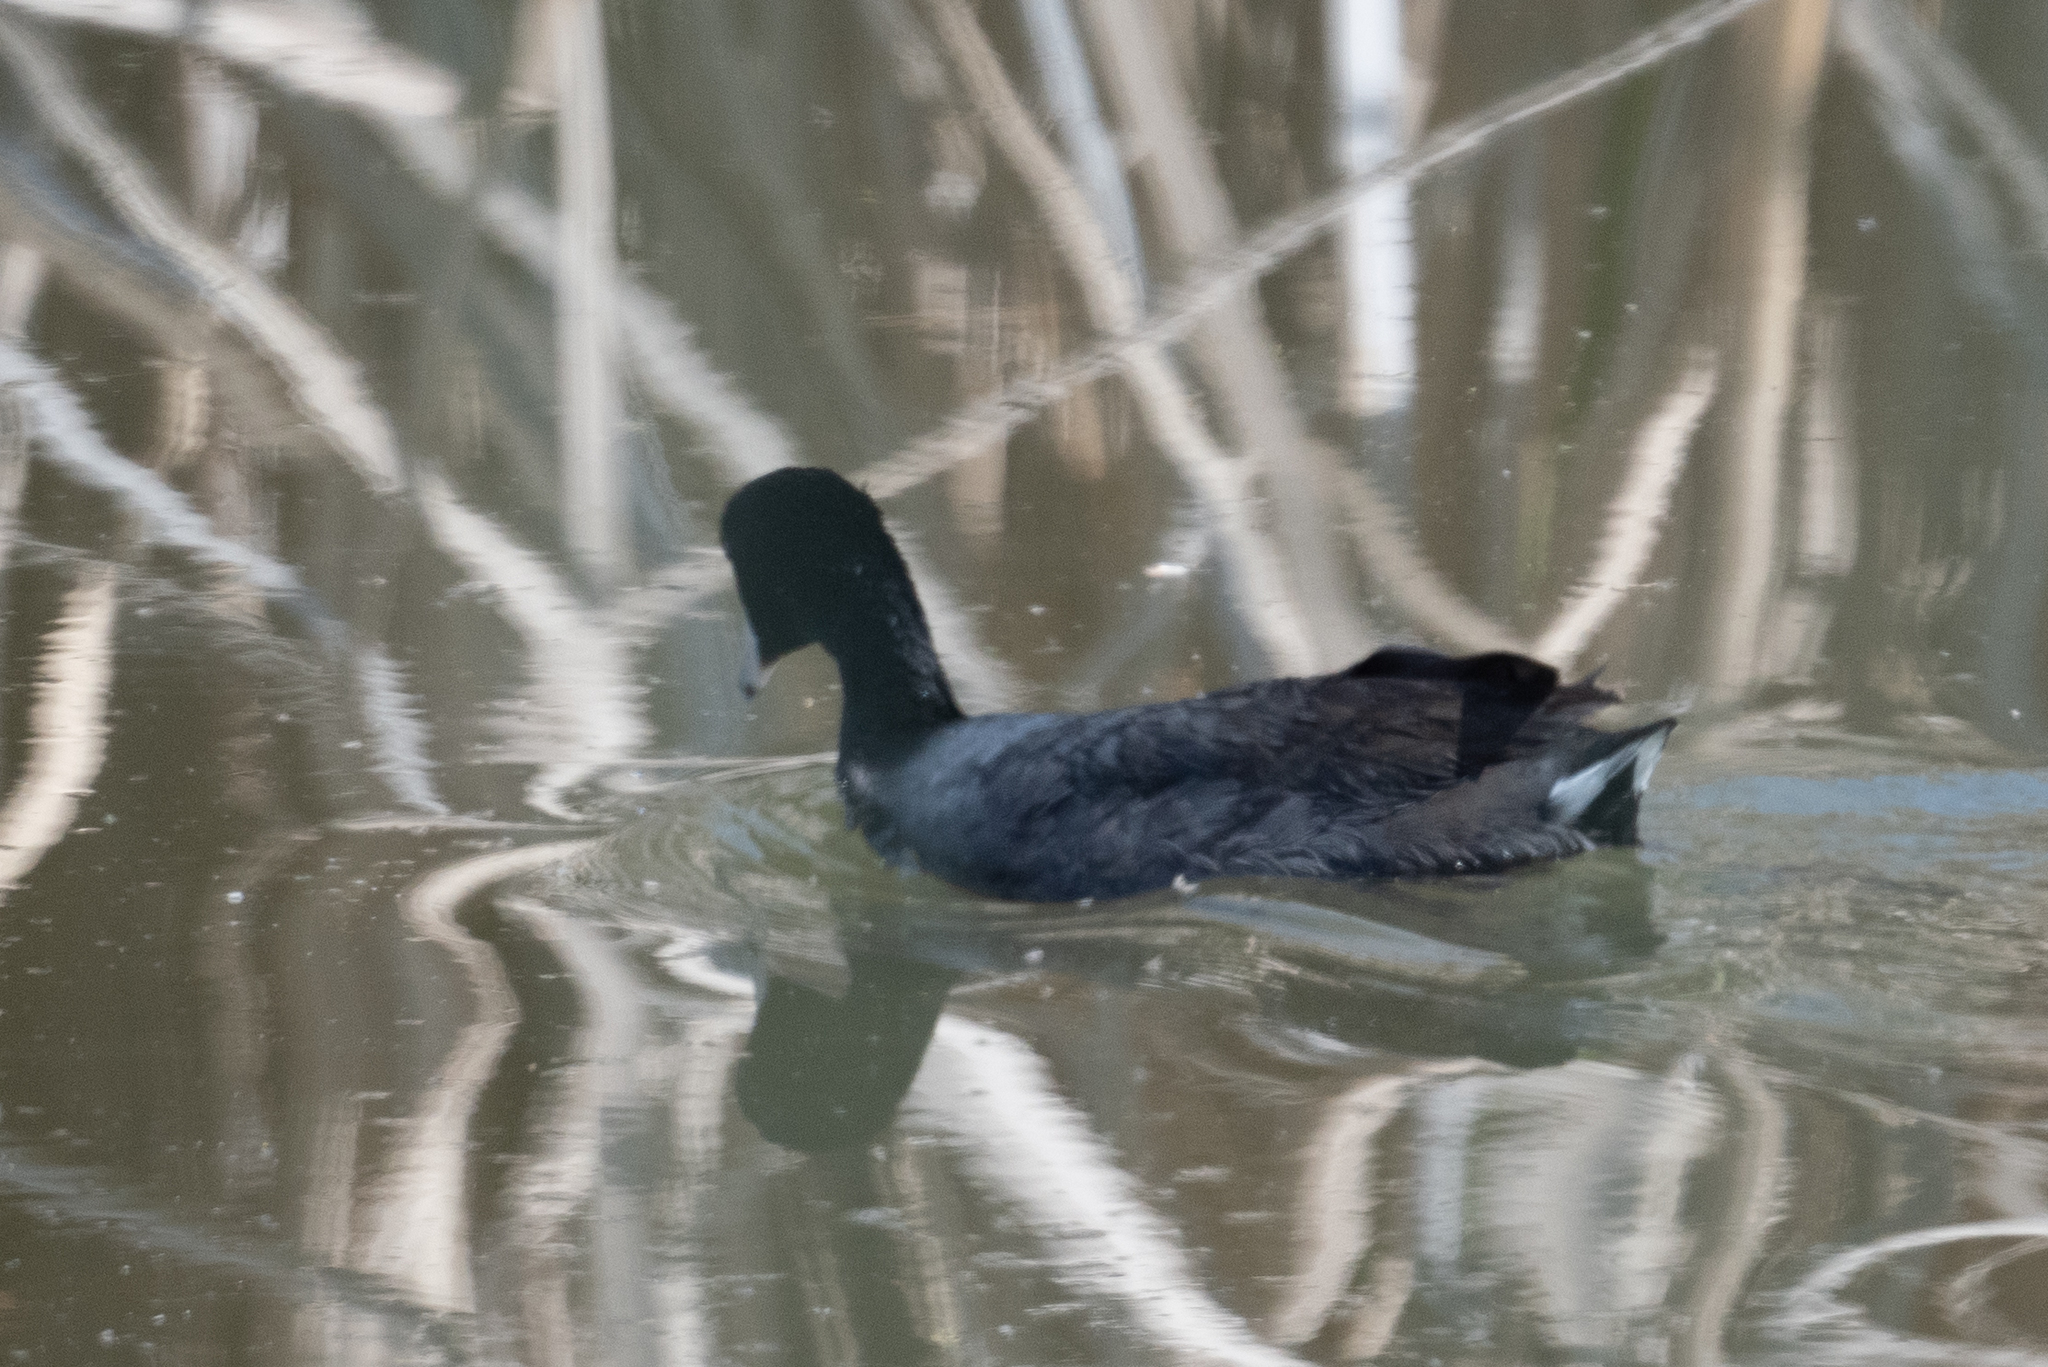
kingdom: Animalia
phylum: Chordata
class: Aves
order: Gruiformes
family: Rallidae
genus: Fulica
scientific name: Fulica americana
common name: American coot
